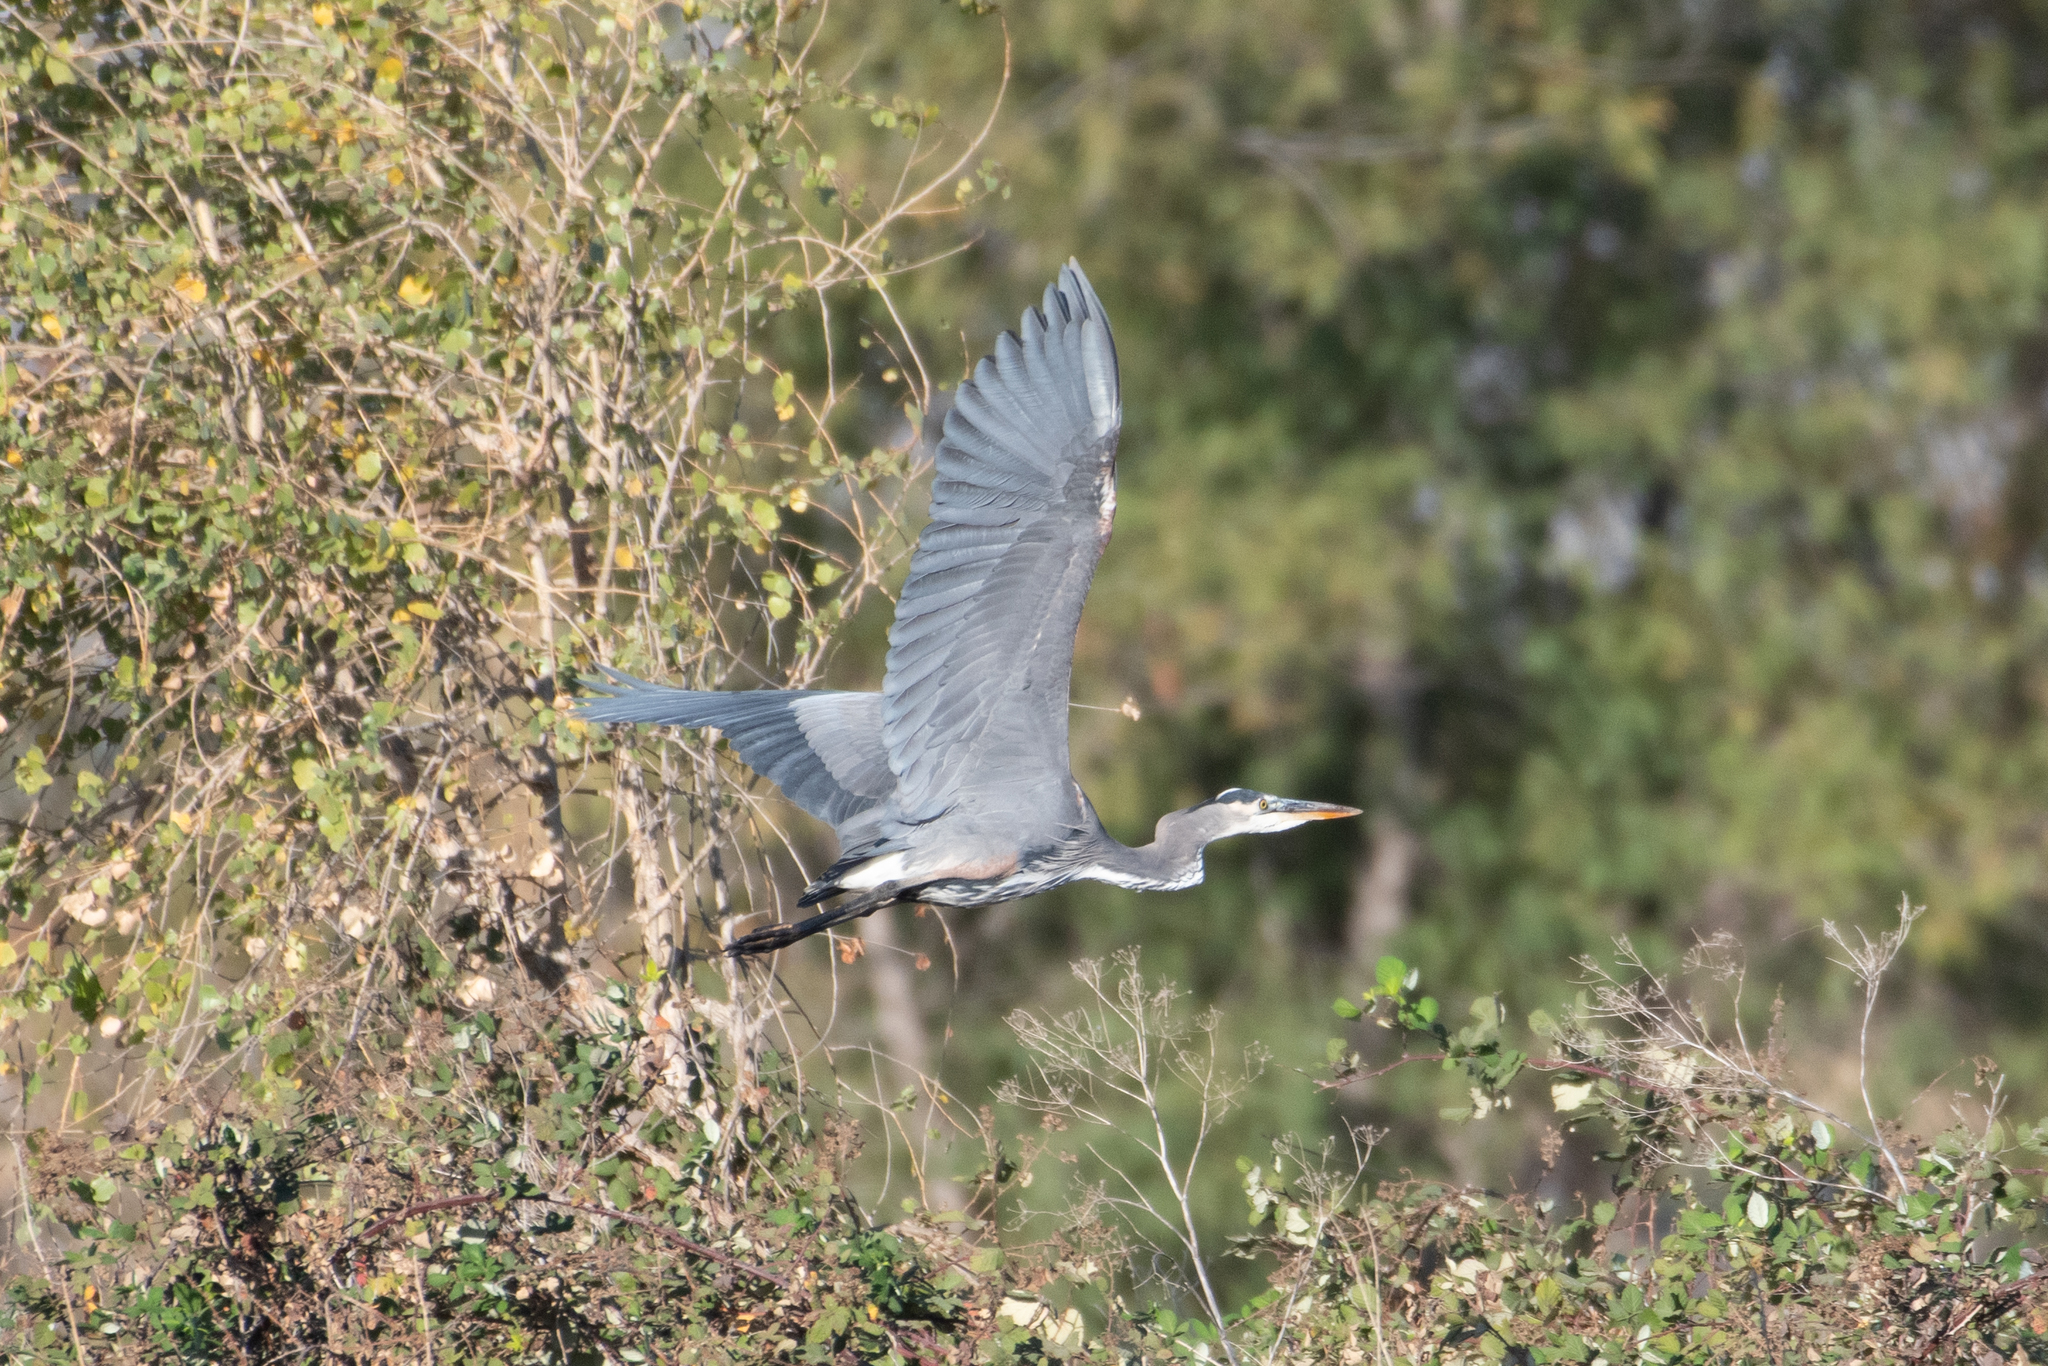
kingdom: Animalia
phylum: Chordata
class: Aves
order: Pelecaniformes
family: Ardeidae
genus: Ardea
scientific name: Ardea herodias
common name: Great blue heron
